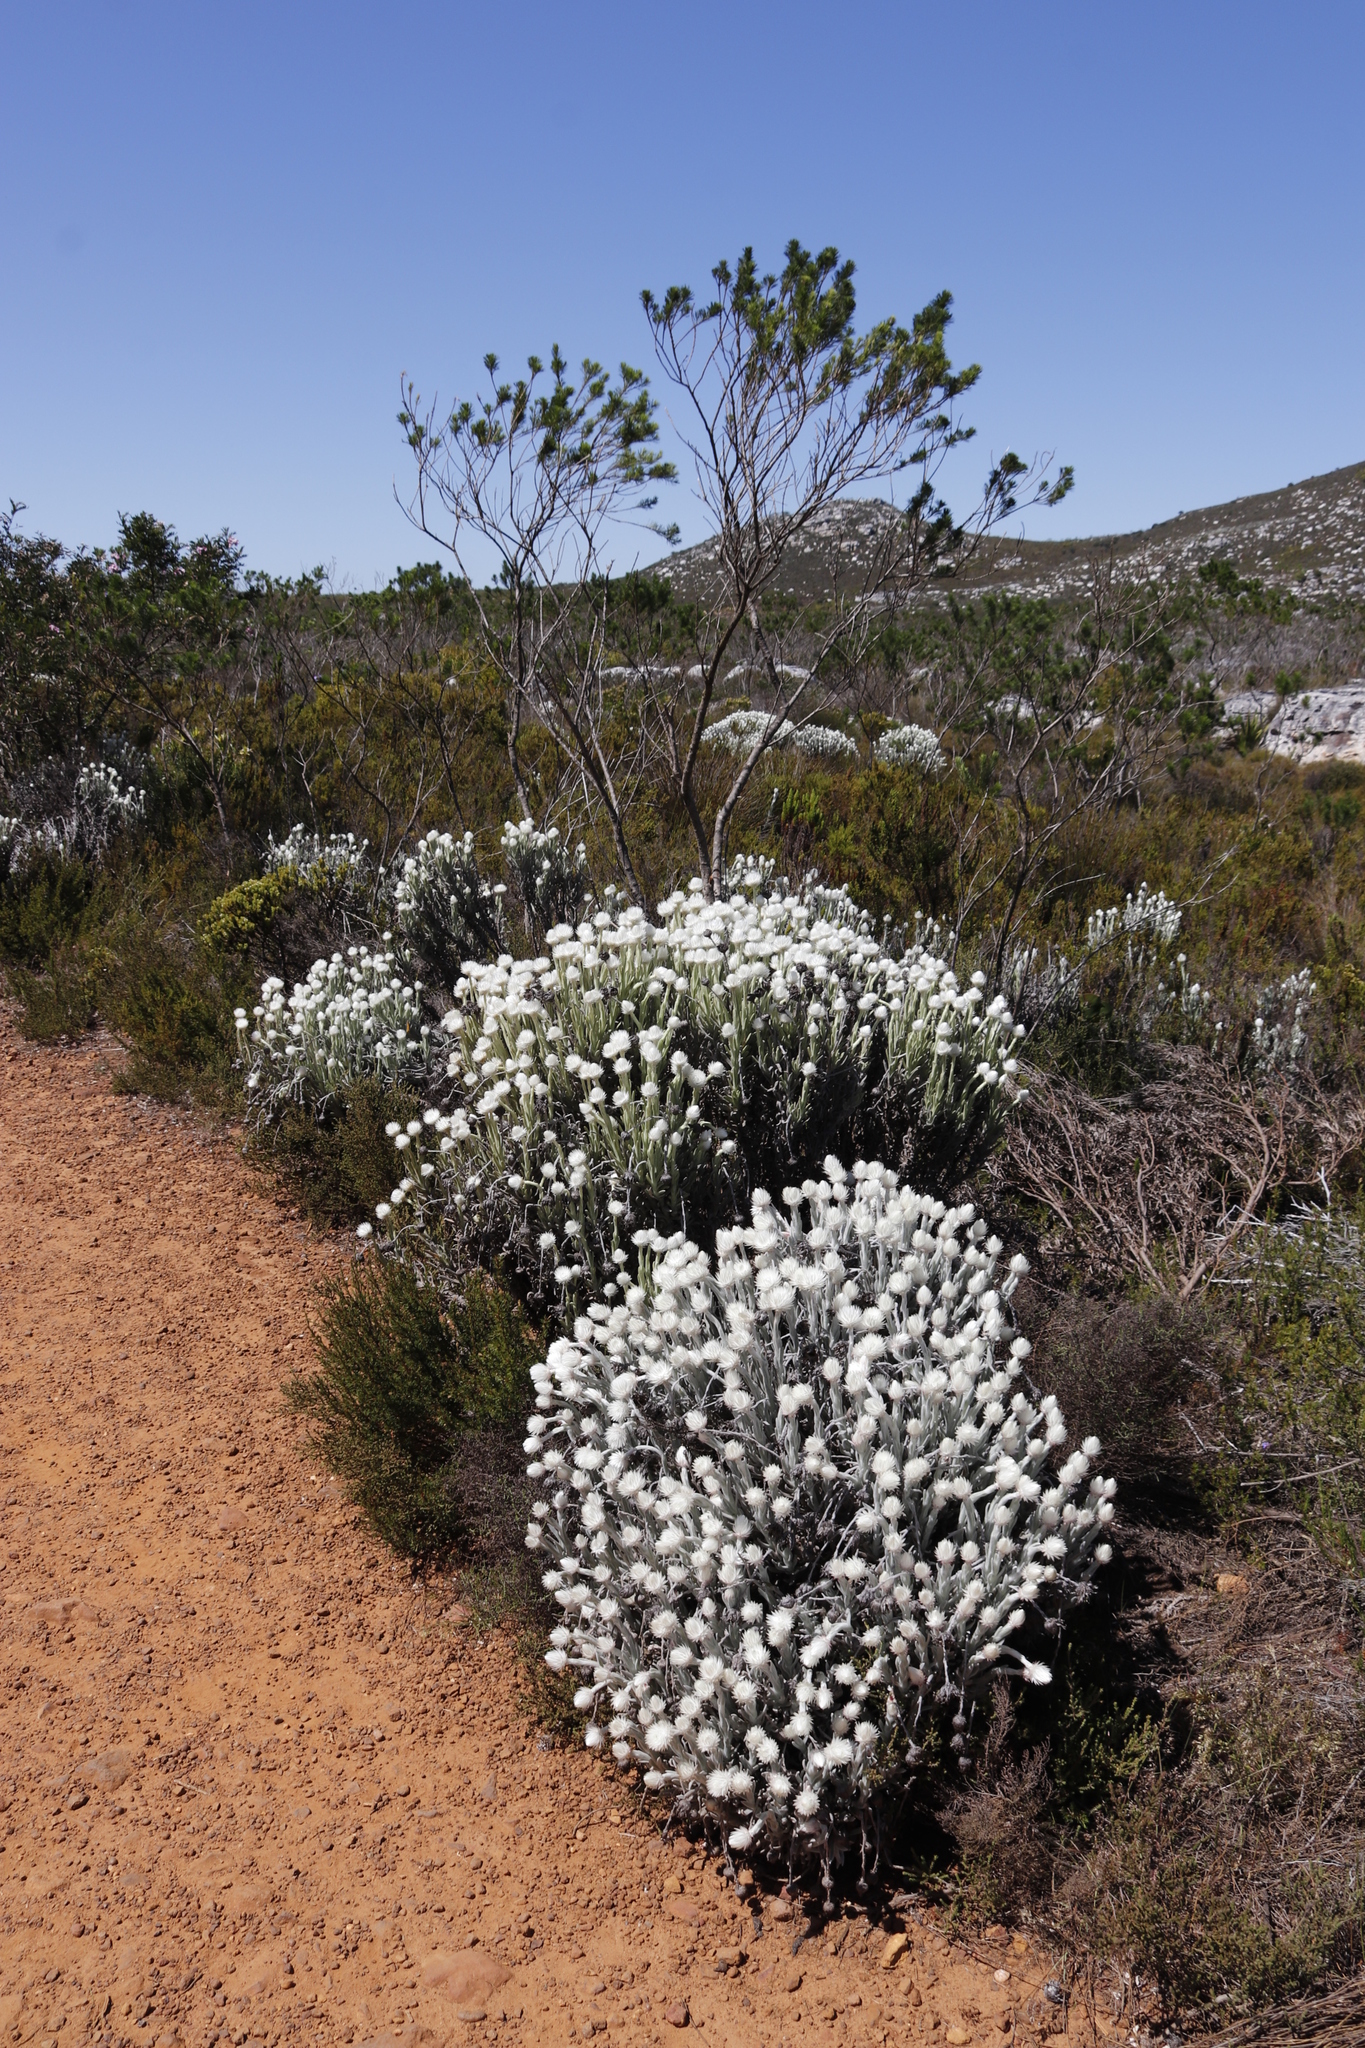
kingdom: Plantae
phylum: Tracheophyta
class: Magnoliopsida
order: Asterales
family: Asteraceae
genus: Syncarpha
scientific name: Syncarpha vestita
